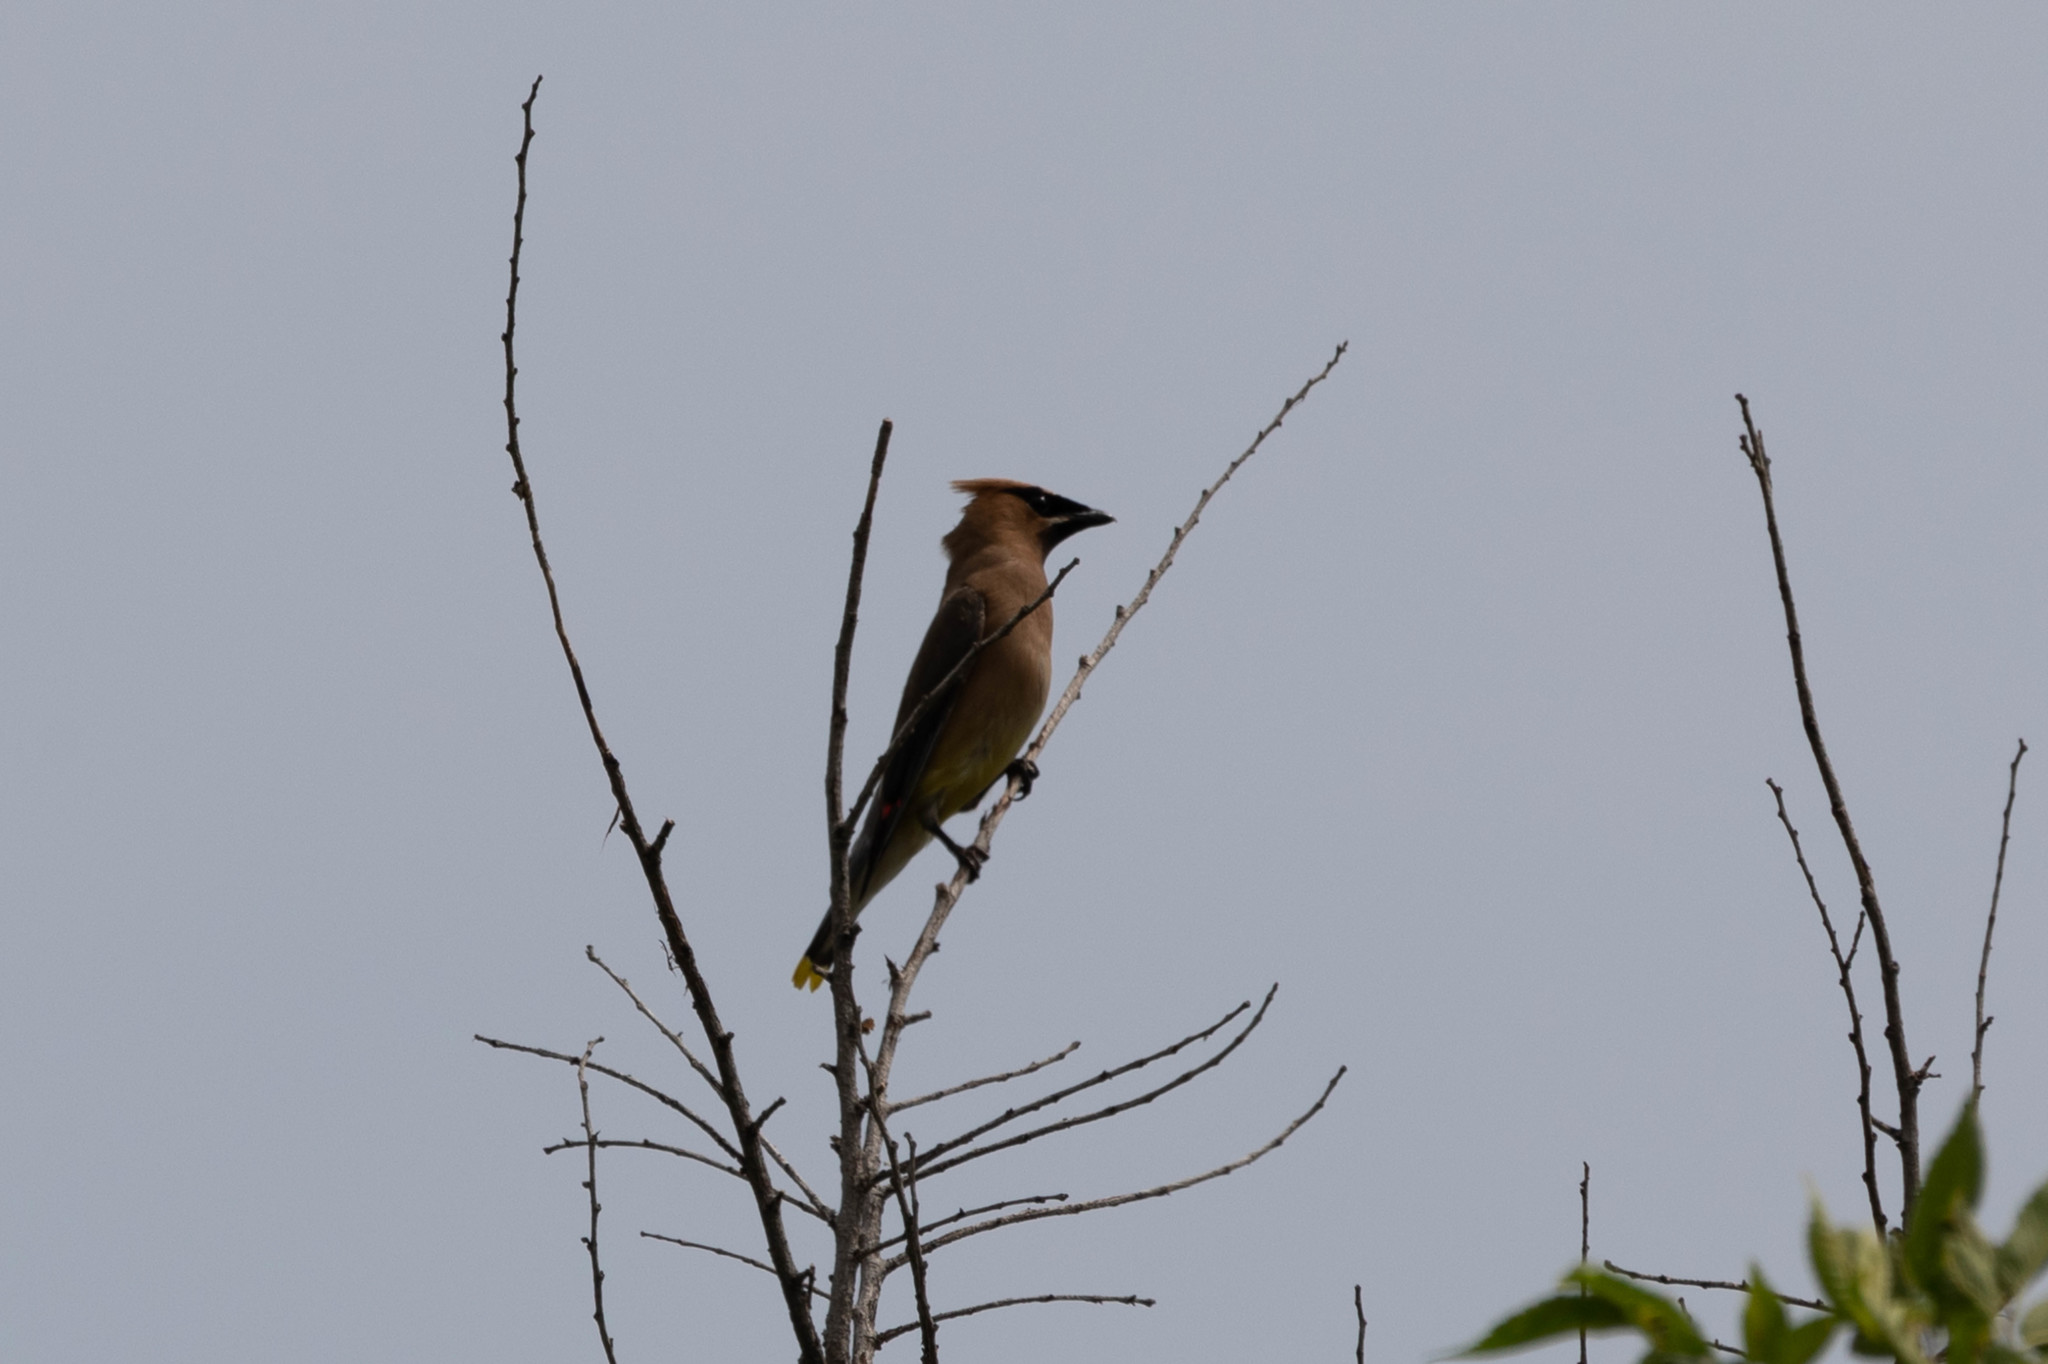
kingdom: Animalia
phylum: Chordata
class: Aves
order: Passeriformes
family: Bombycillidae
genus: Bombycilla
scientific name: Bombycilla cedrorum
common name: Cedar waxwing
